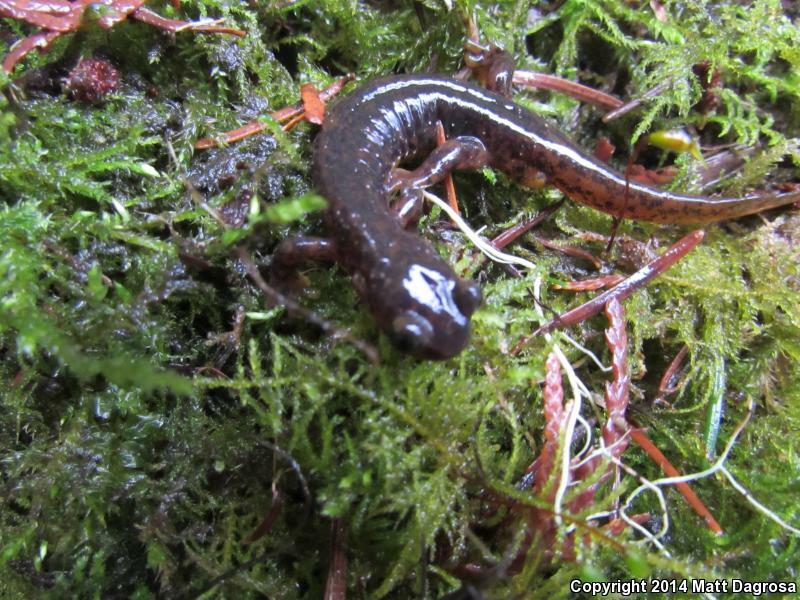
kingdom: Animalia
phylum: Chordata
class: Amphibia
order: Caudata
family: Rhyacotritonidae
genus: Rhyacotriton
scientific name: Rhyacotriton cascadae
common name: Cascade torrent salamander
